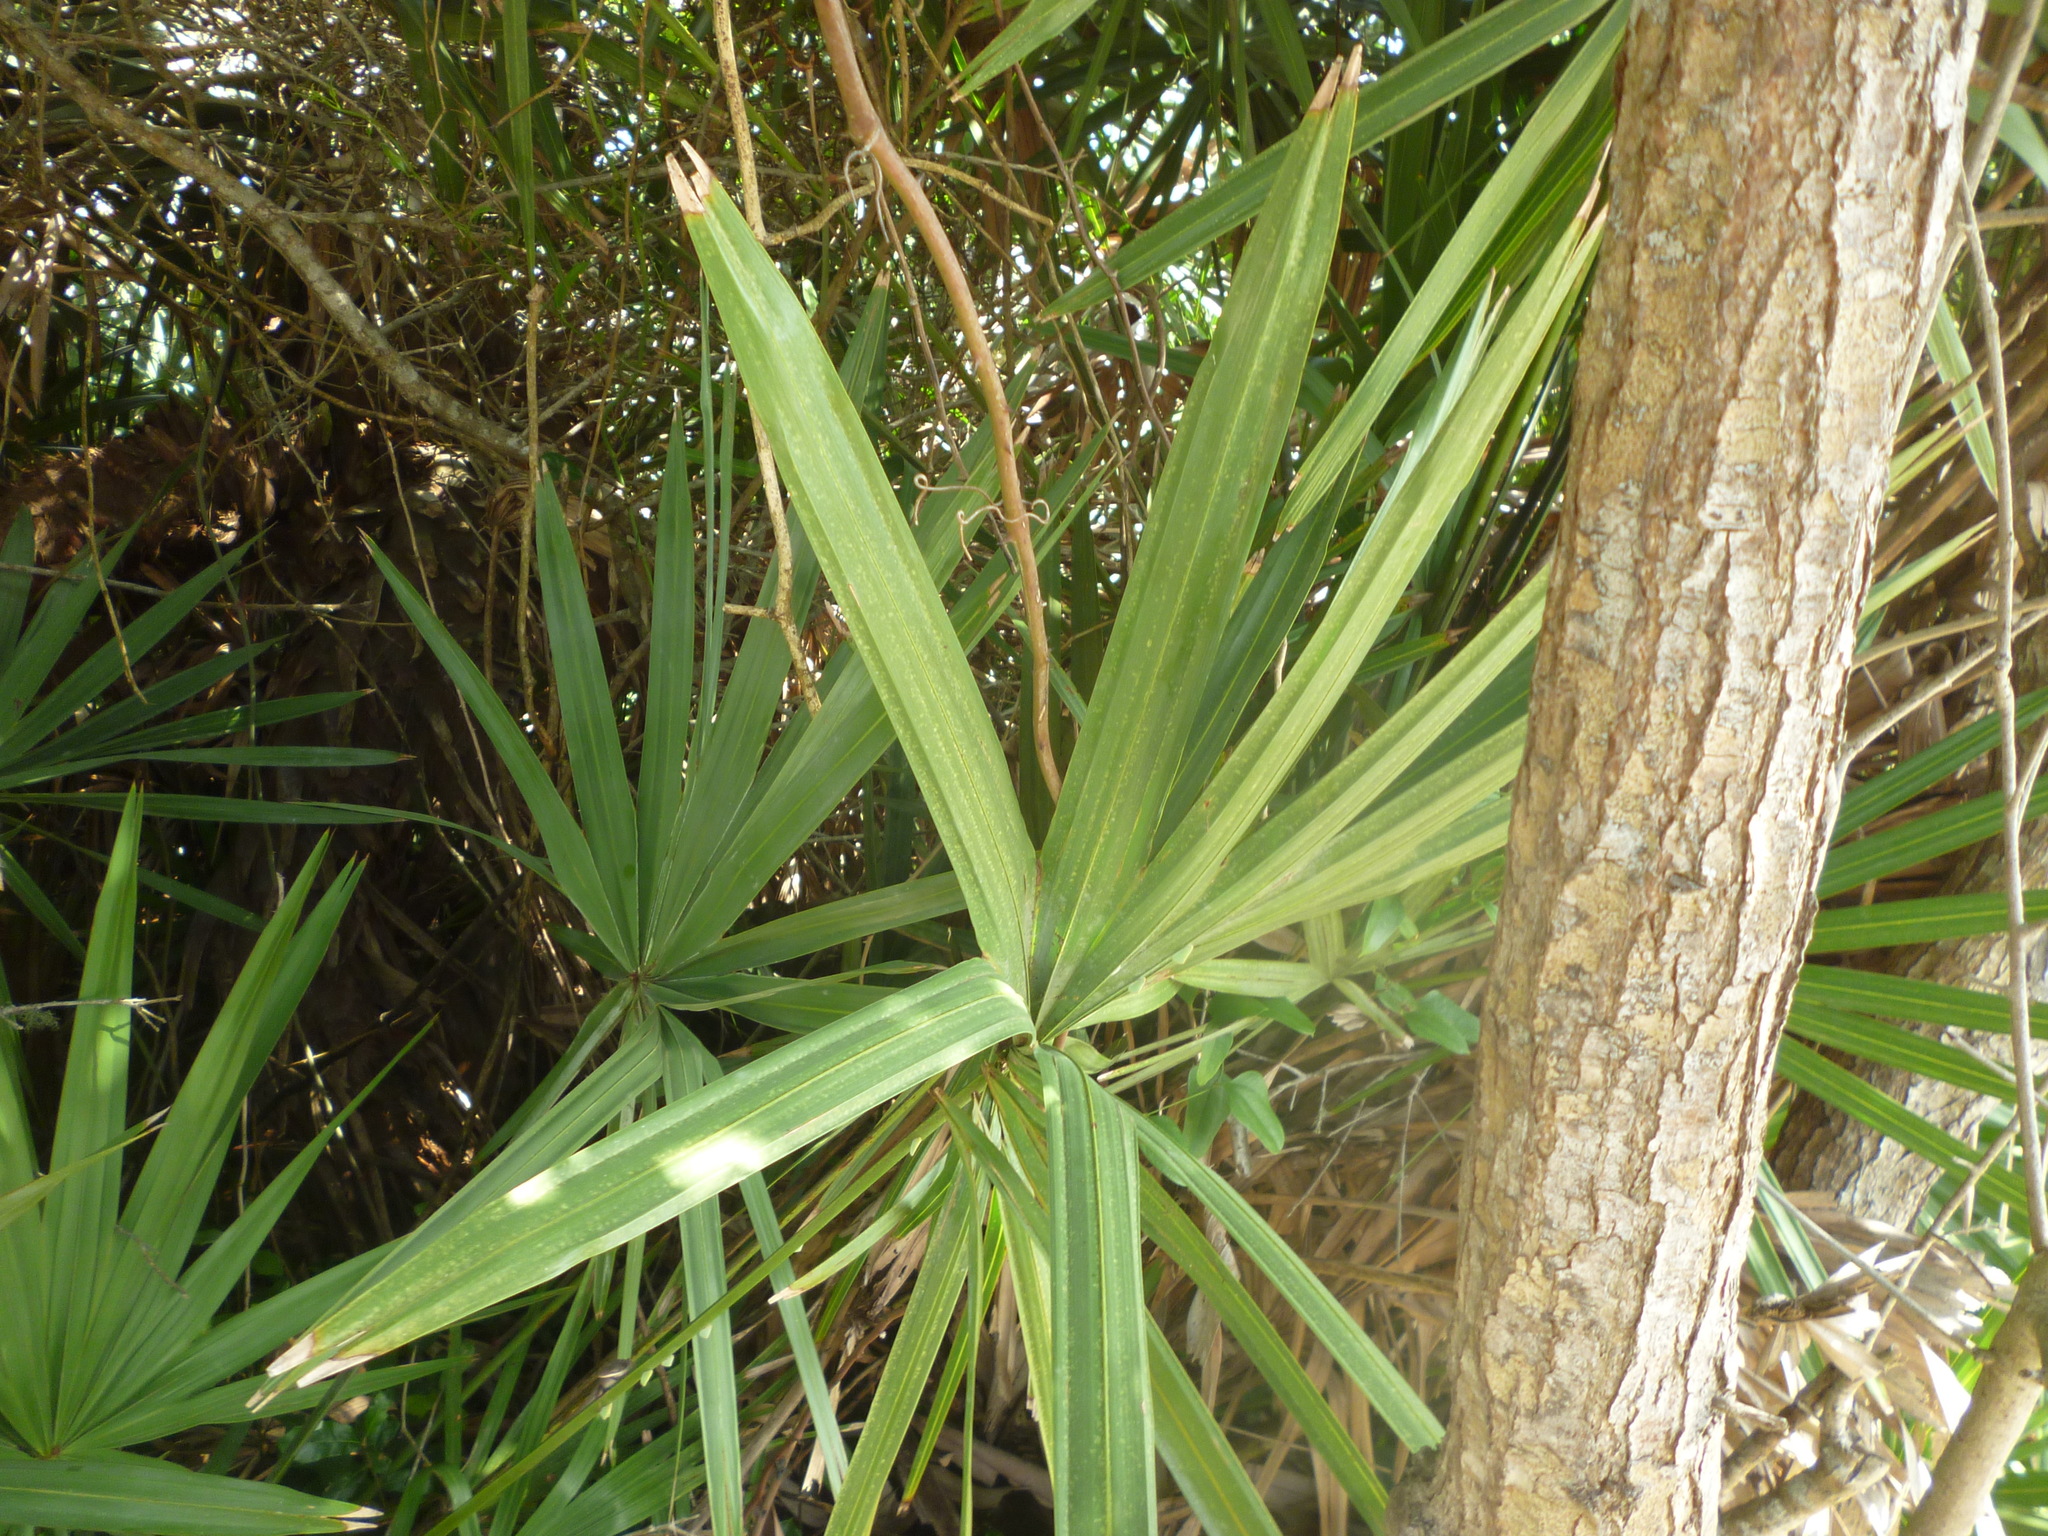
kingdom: Plantae
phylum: Tracheophyta
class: Liliopsida
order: Arecales
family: Arecaceae
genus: Serenoa
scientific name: Serenoa repens
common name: Saw-palmetto
